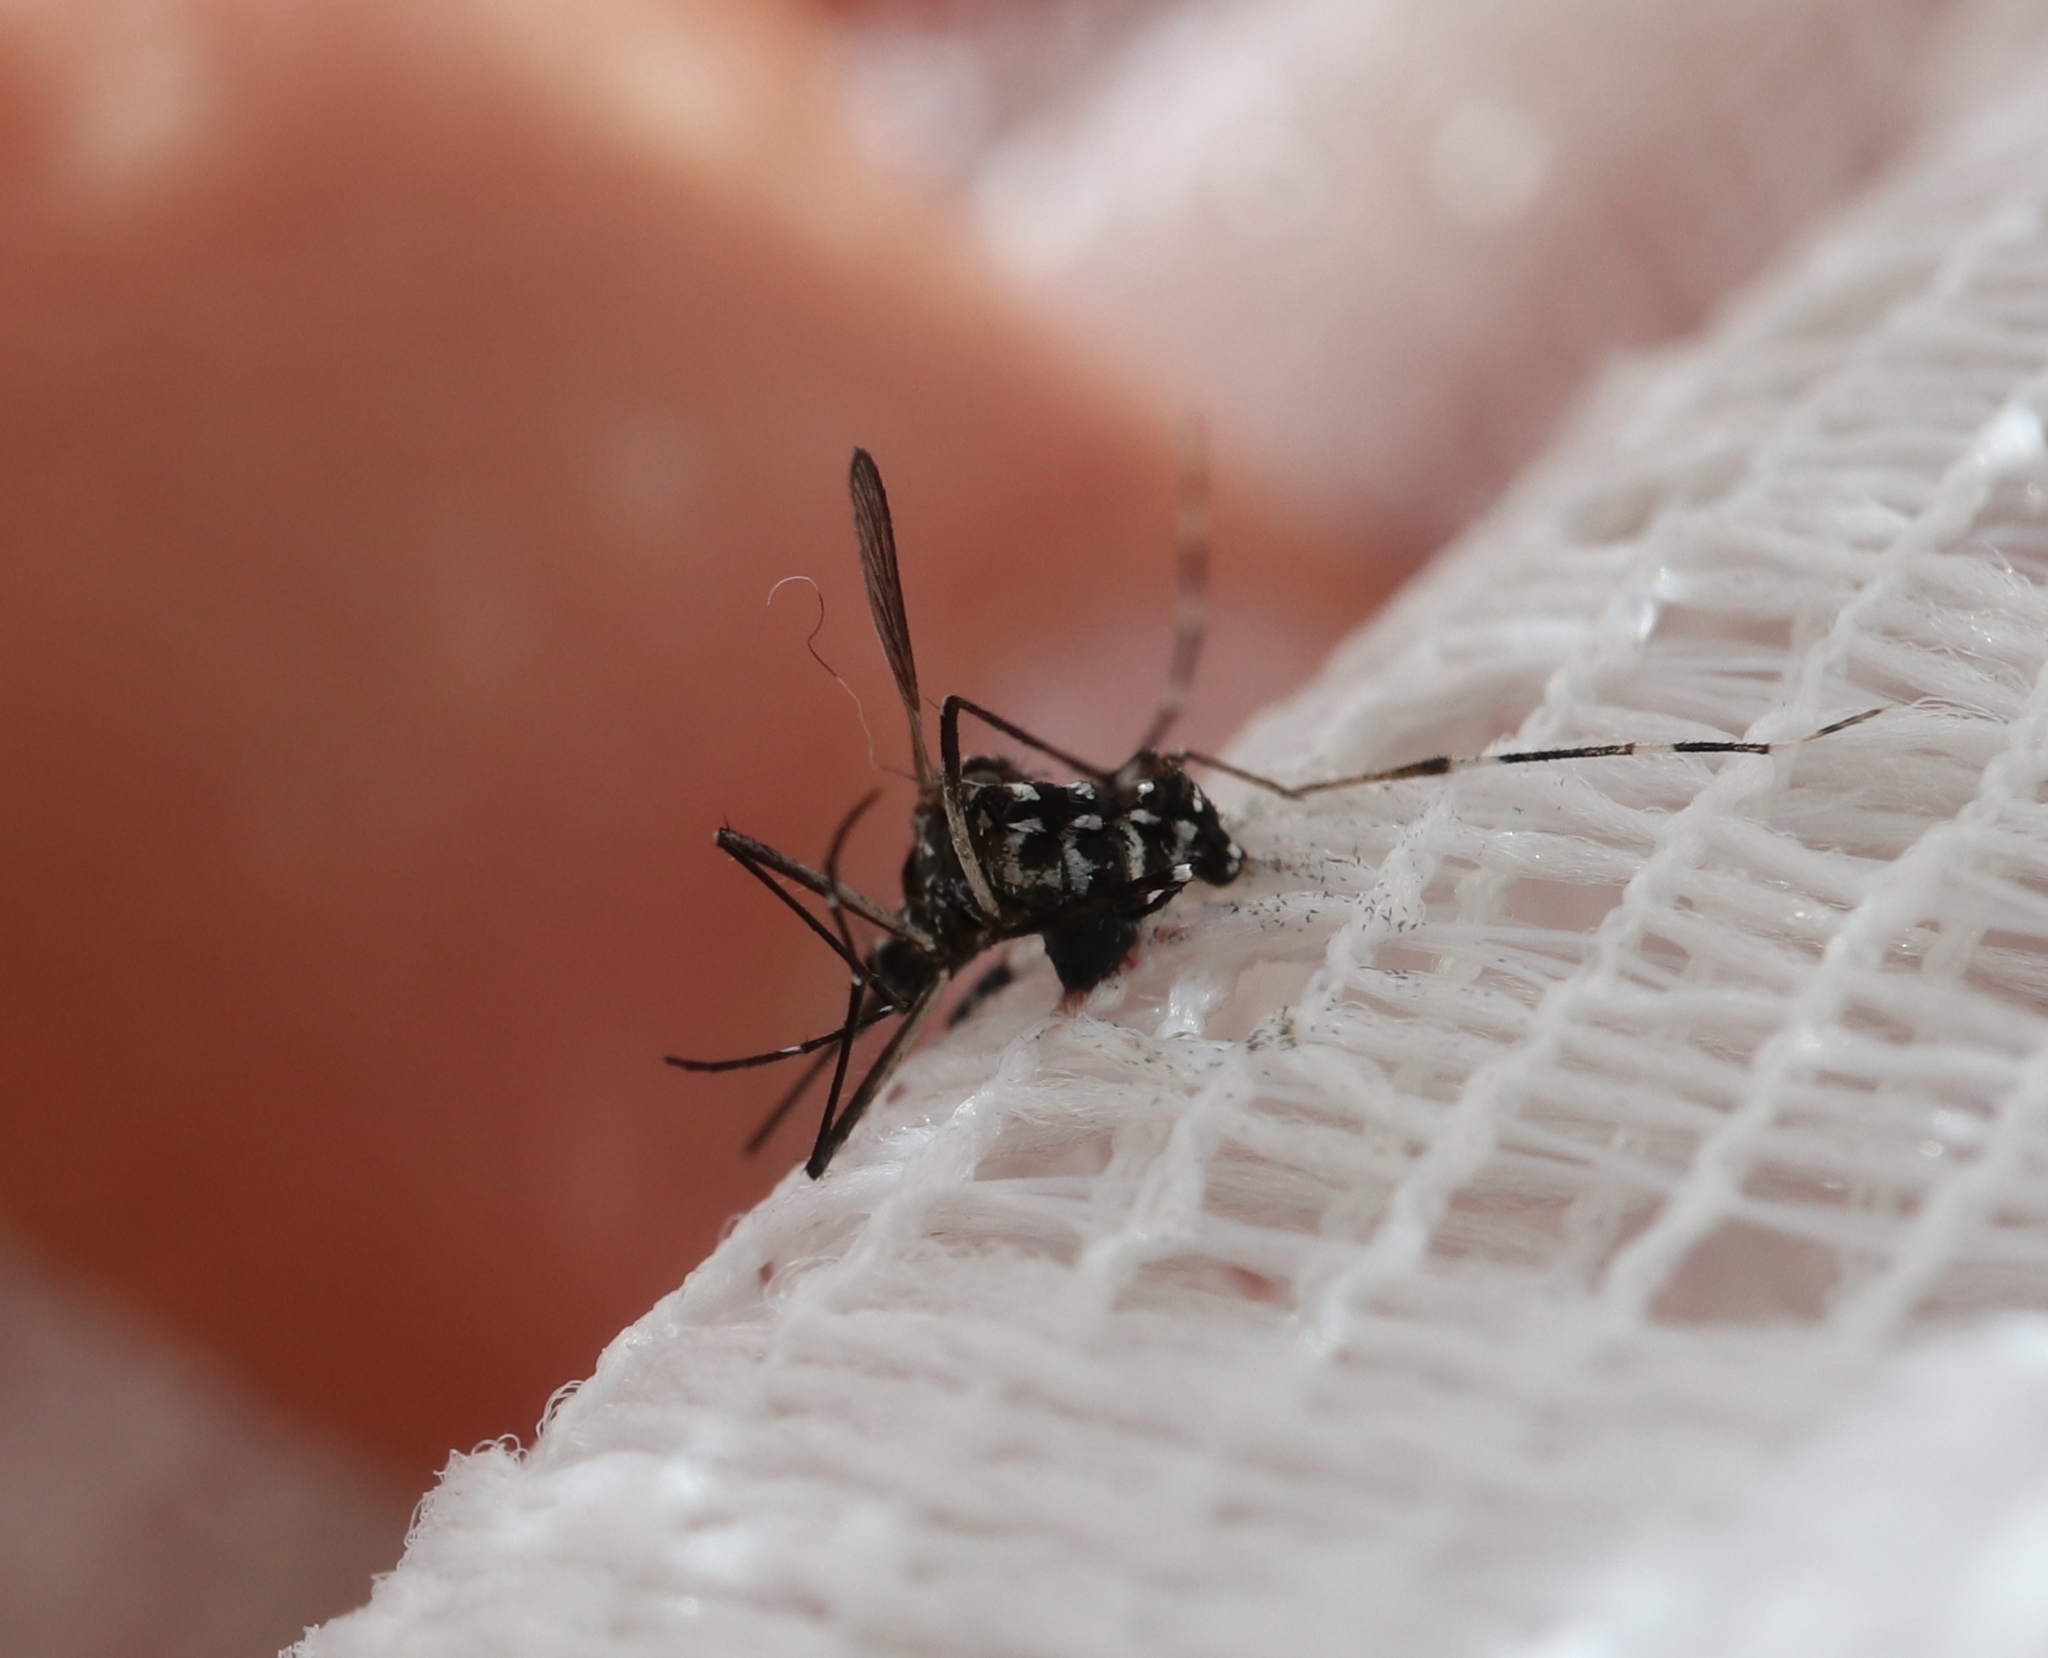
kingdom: Animalia
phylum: Arthropoda
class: Insecta
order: Diptera
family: Culicidae
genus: Aedes
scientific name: Aedes albopictus
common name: Tiger mosquito
